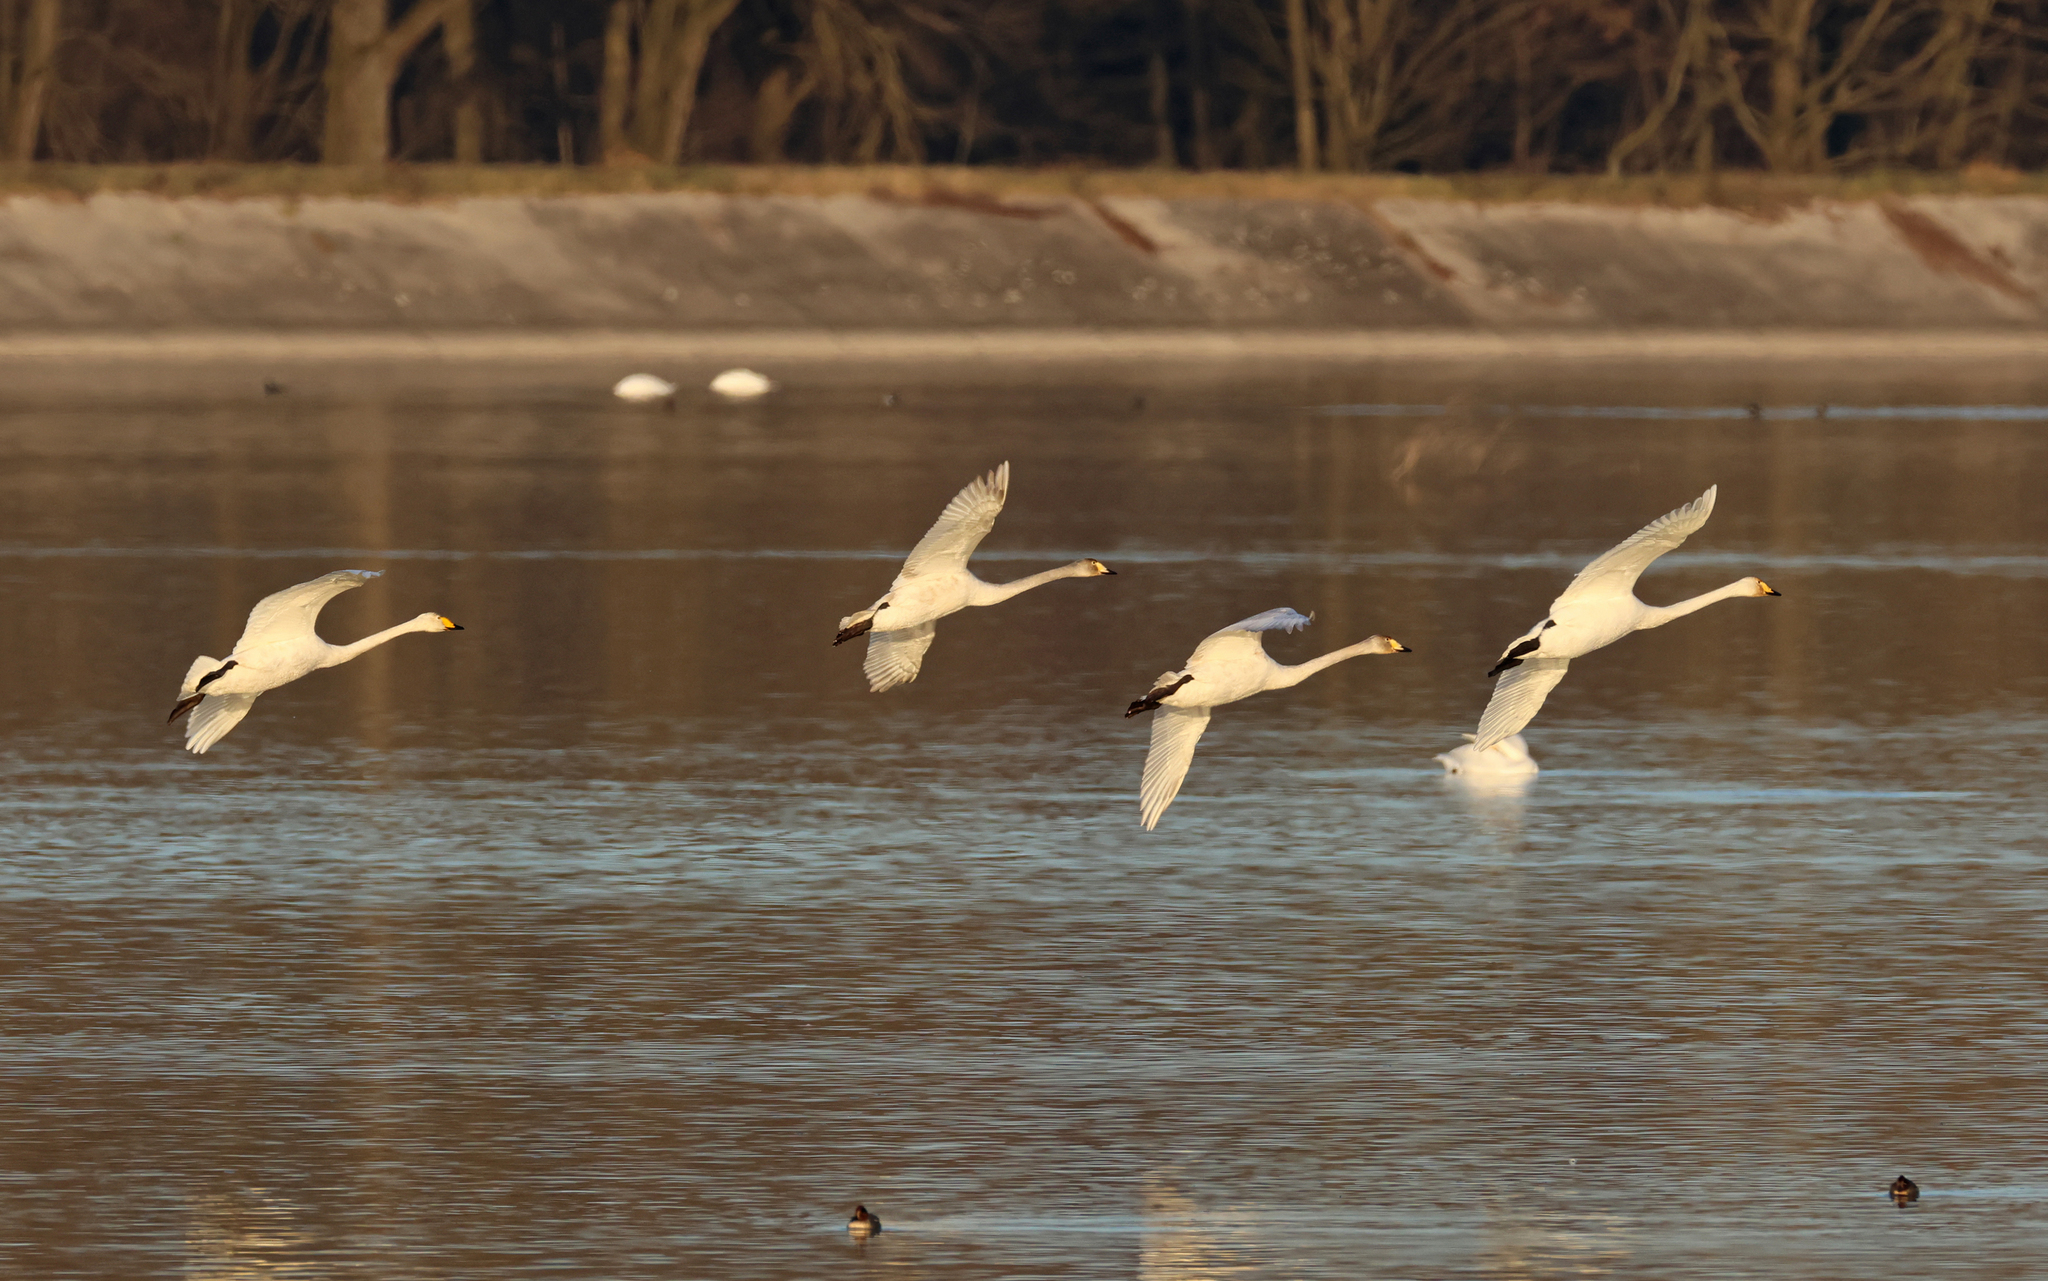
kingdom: Animalia
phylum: Chordata
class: Aves
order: Anseriformes
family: Anatidae
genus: Cygnus
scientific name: Cygnus cygnus
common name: Whooper swan
